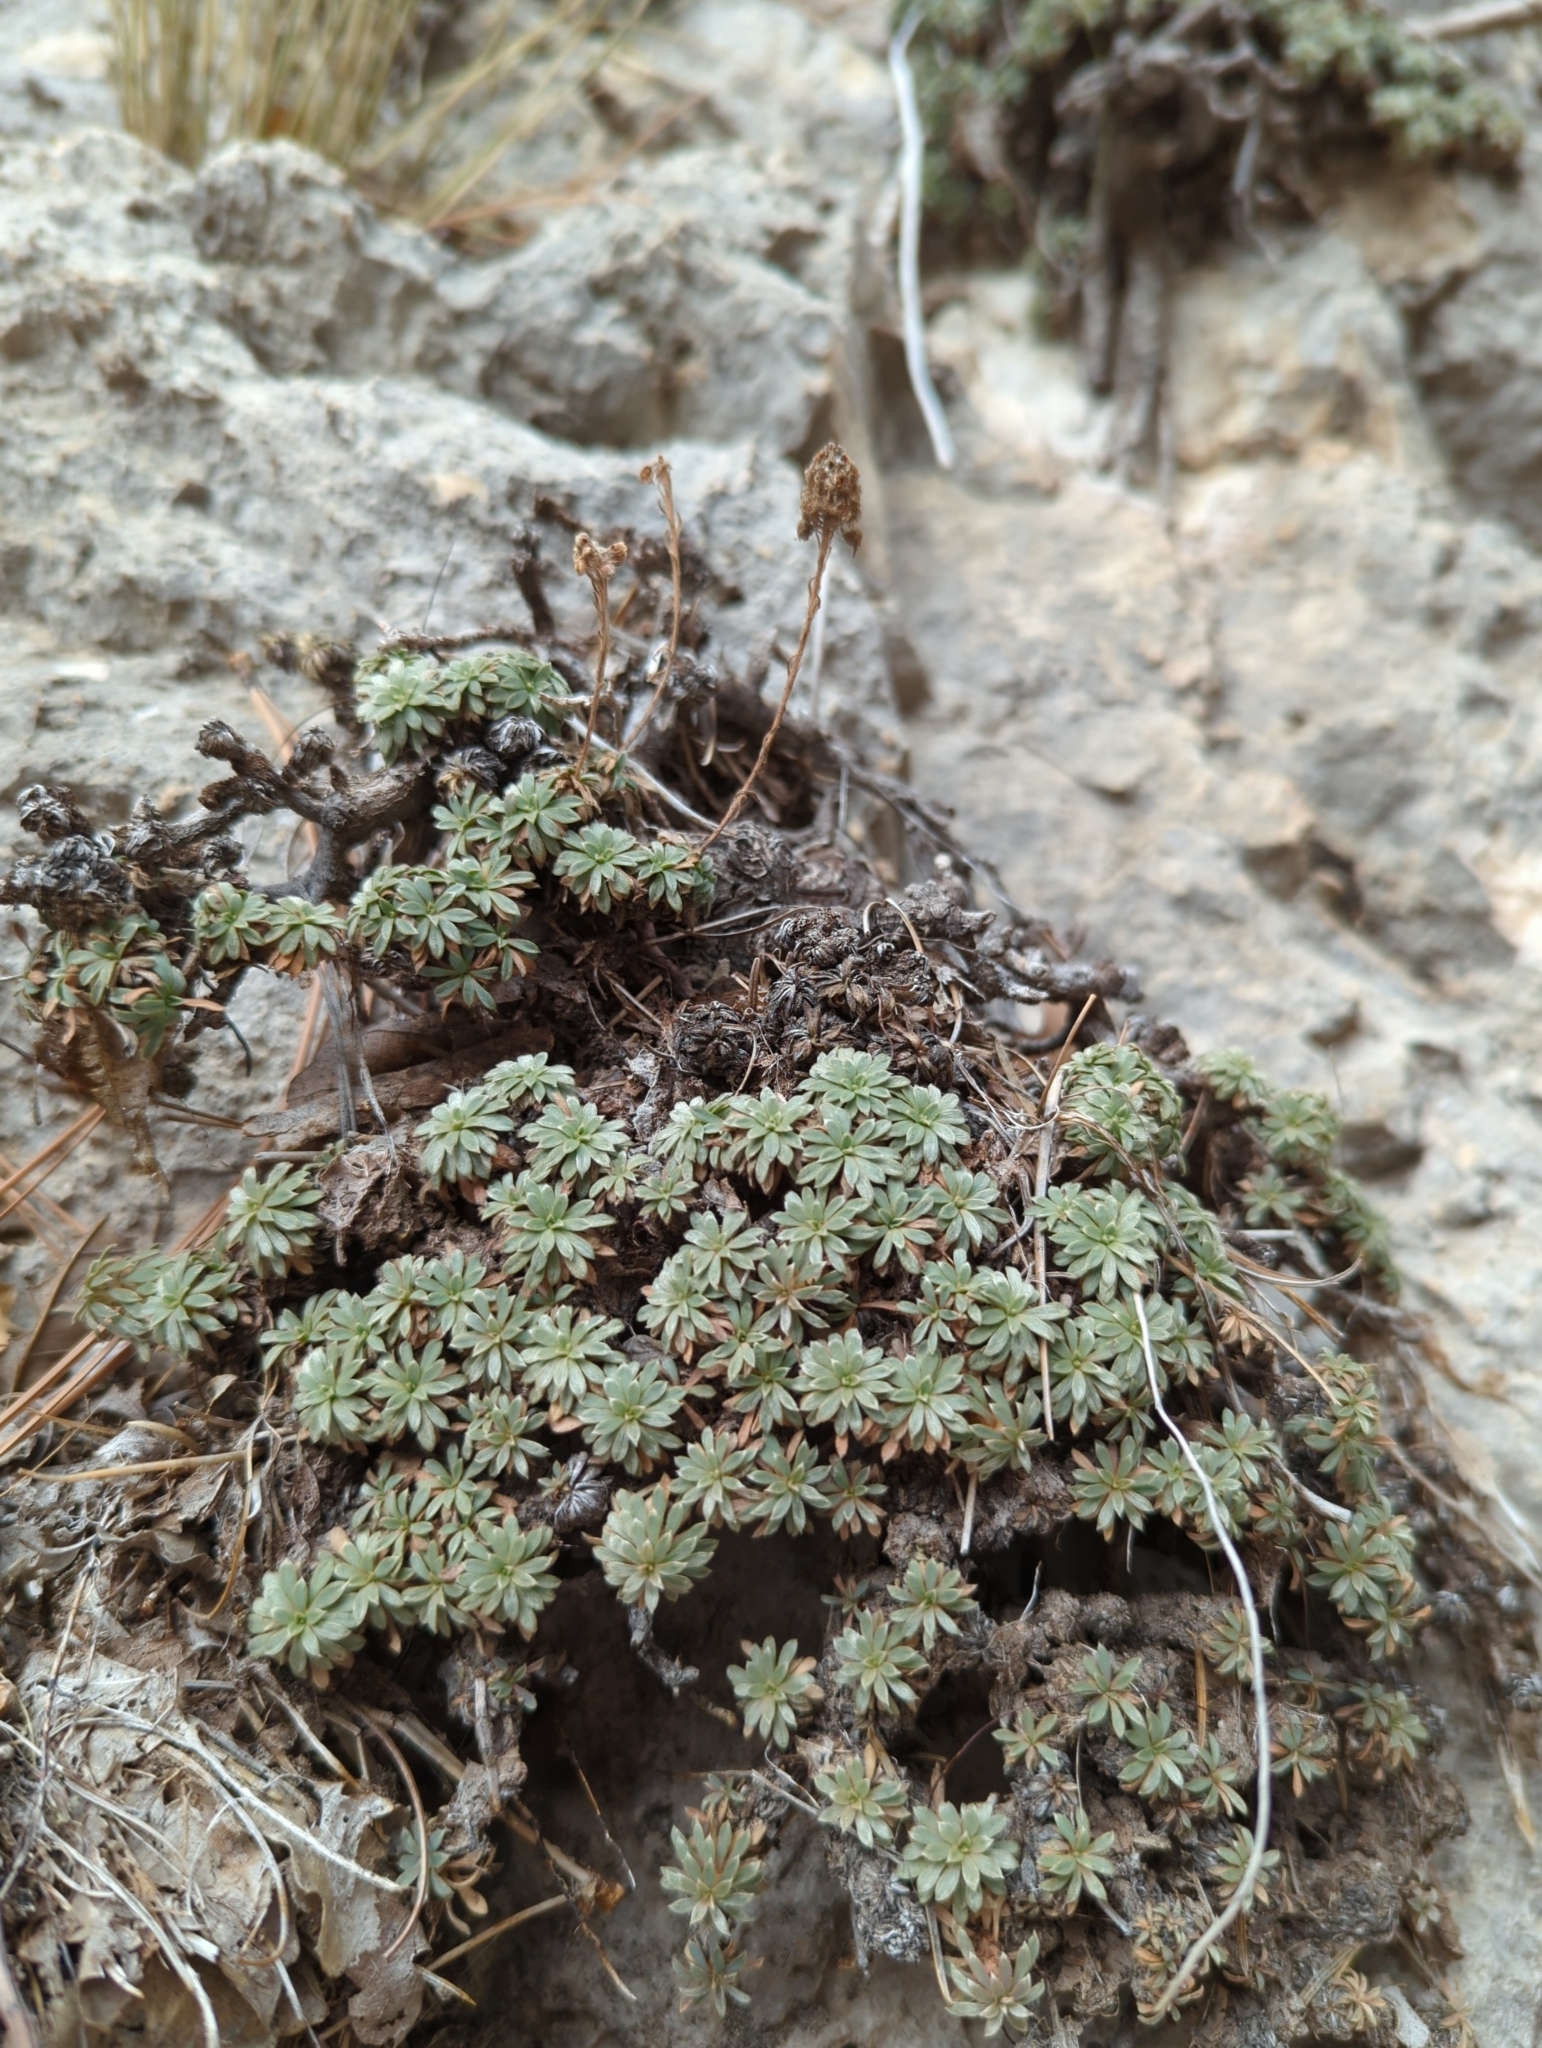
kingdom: Plantae
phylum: Tracheophyta
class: Magnoliopsida
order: Rosales
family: Rosaceae
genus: Petrophytum
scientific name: Petrophytum caespitosum
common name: Mat rockspirea
